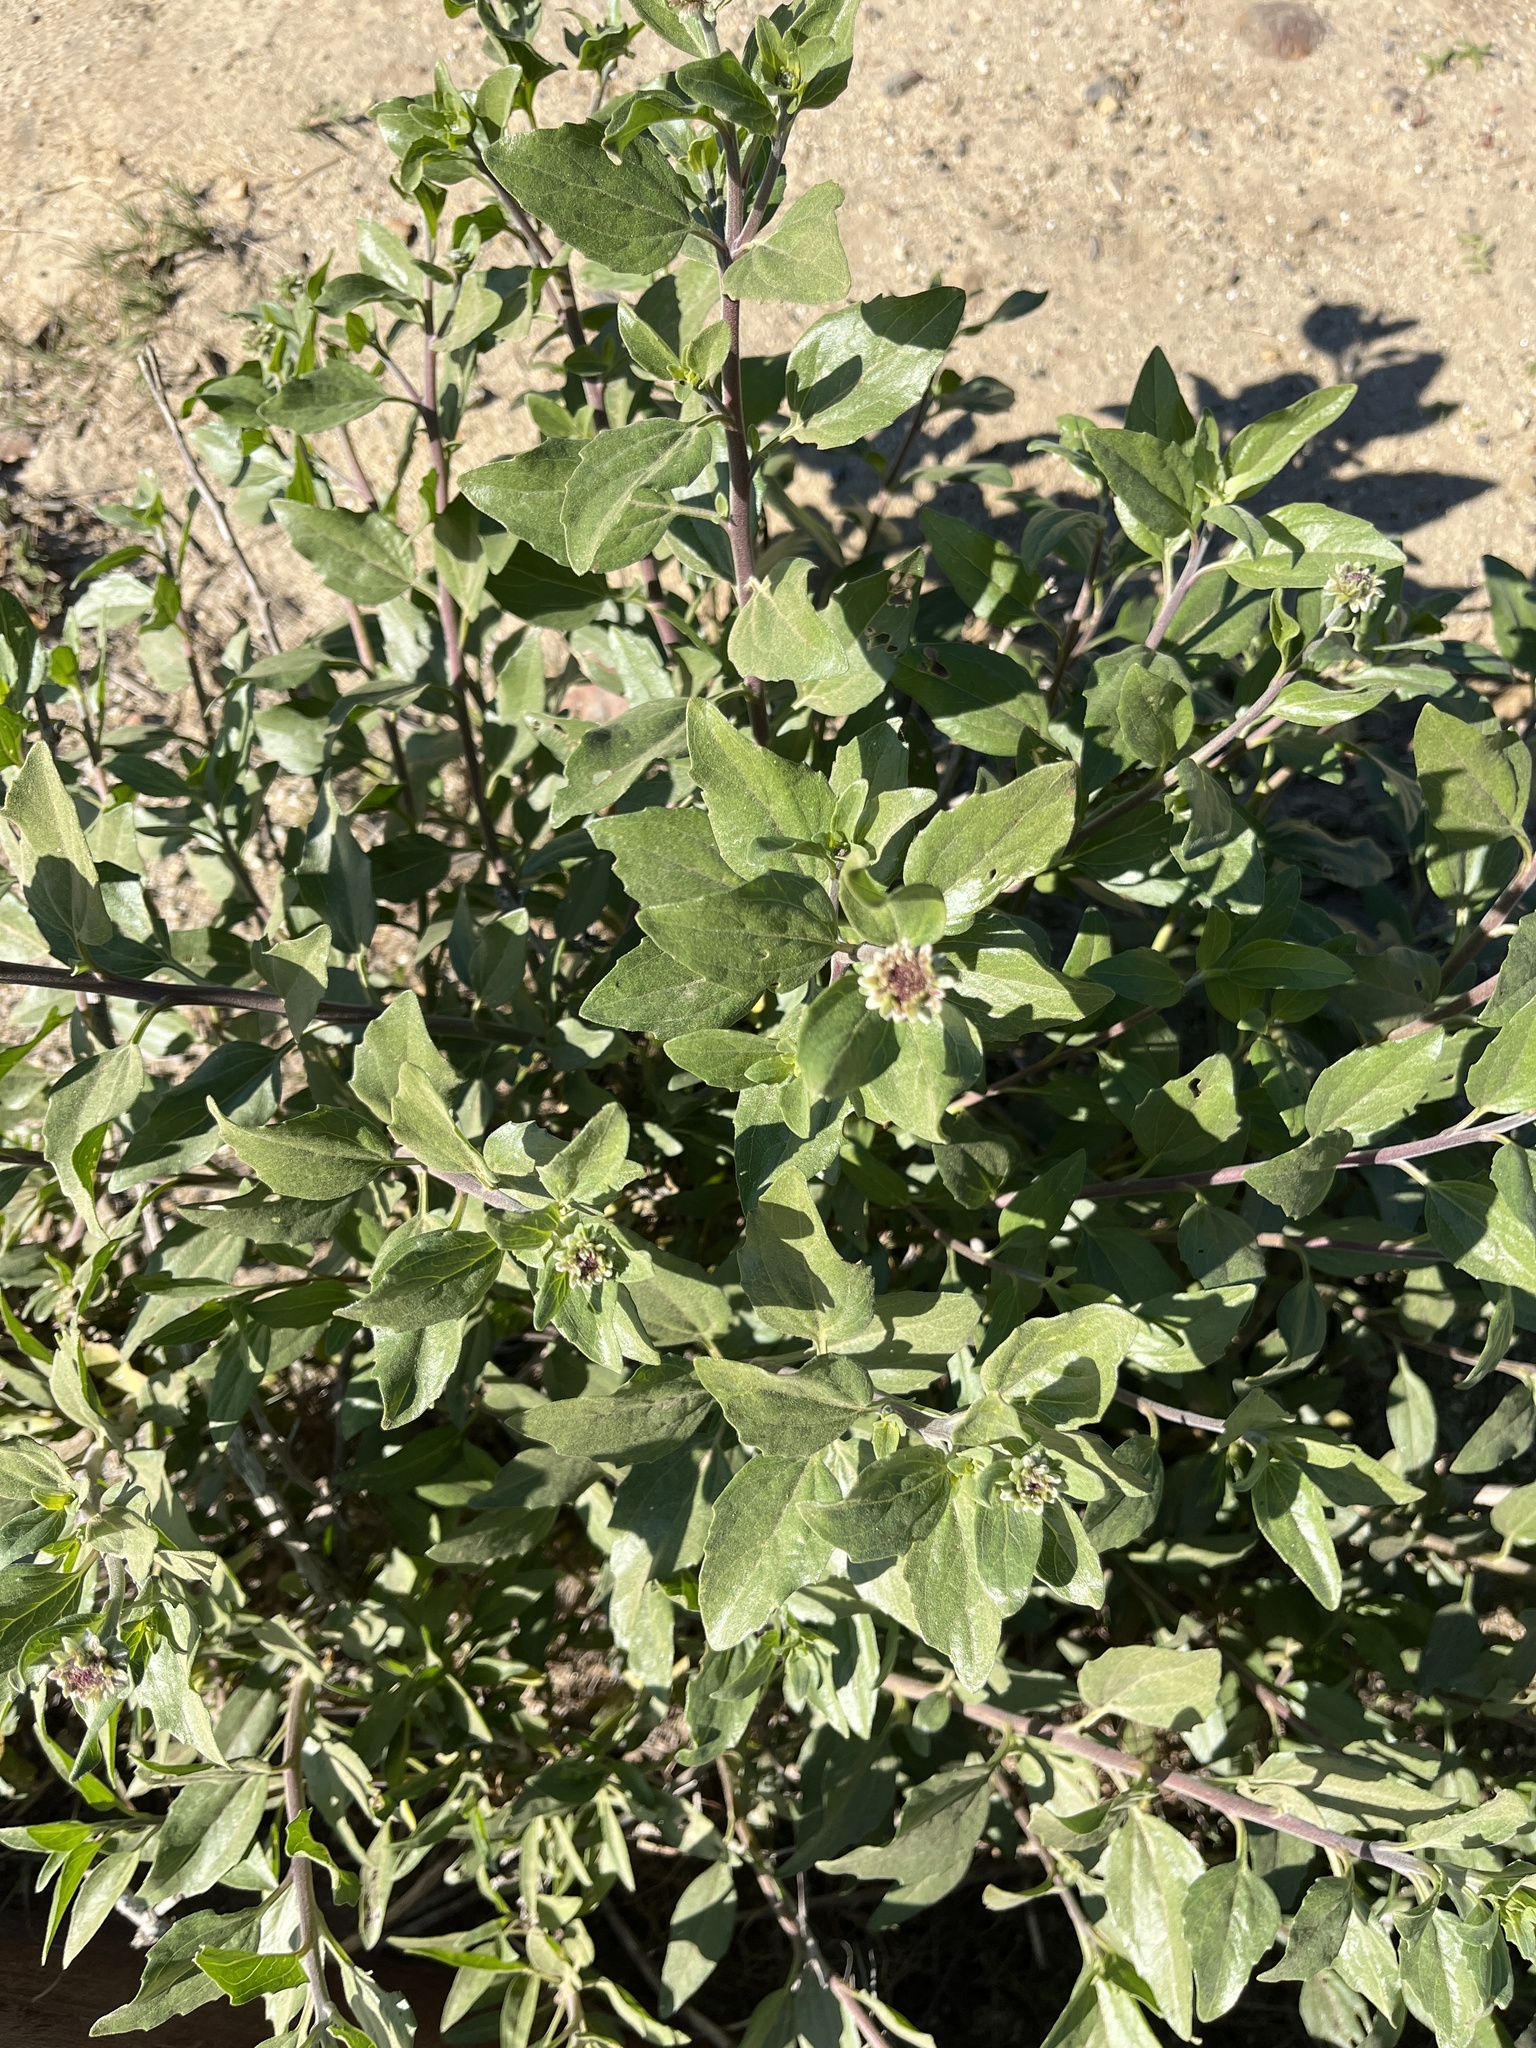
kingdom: Plantae
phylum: Tracheophyta
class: Magnoliopsida
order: Asterales
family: Asteraceae
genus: Encelia
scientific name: Encelia californica
